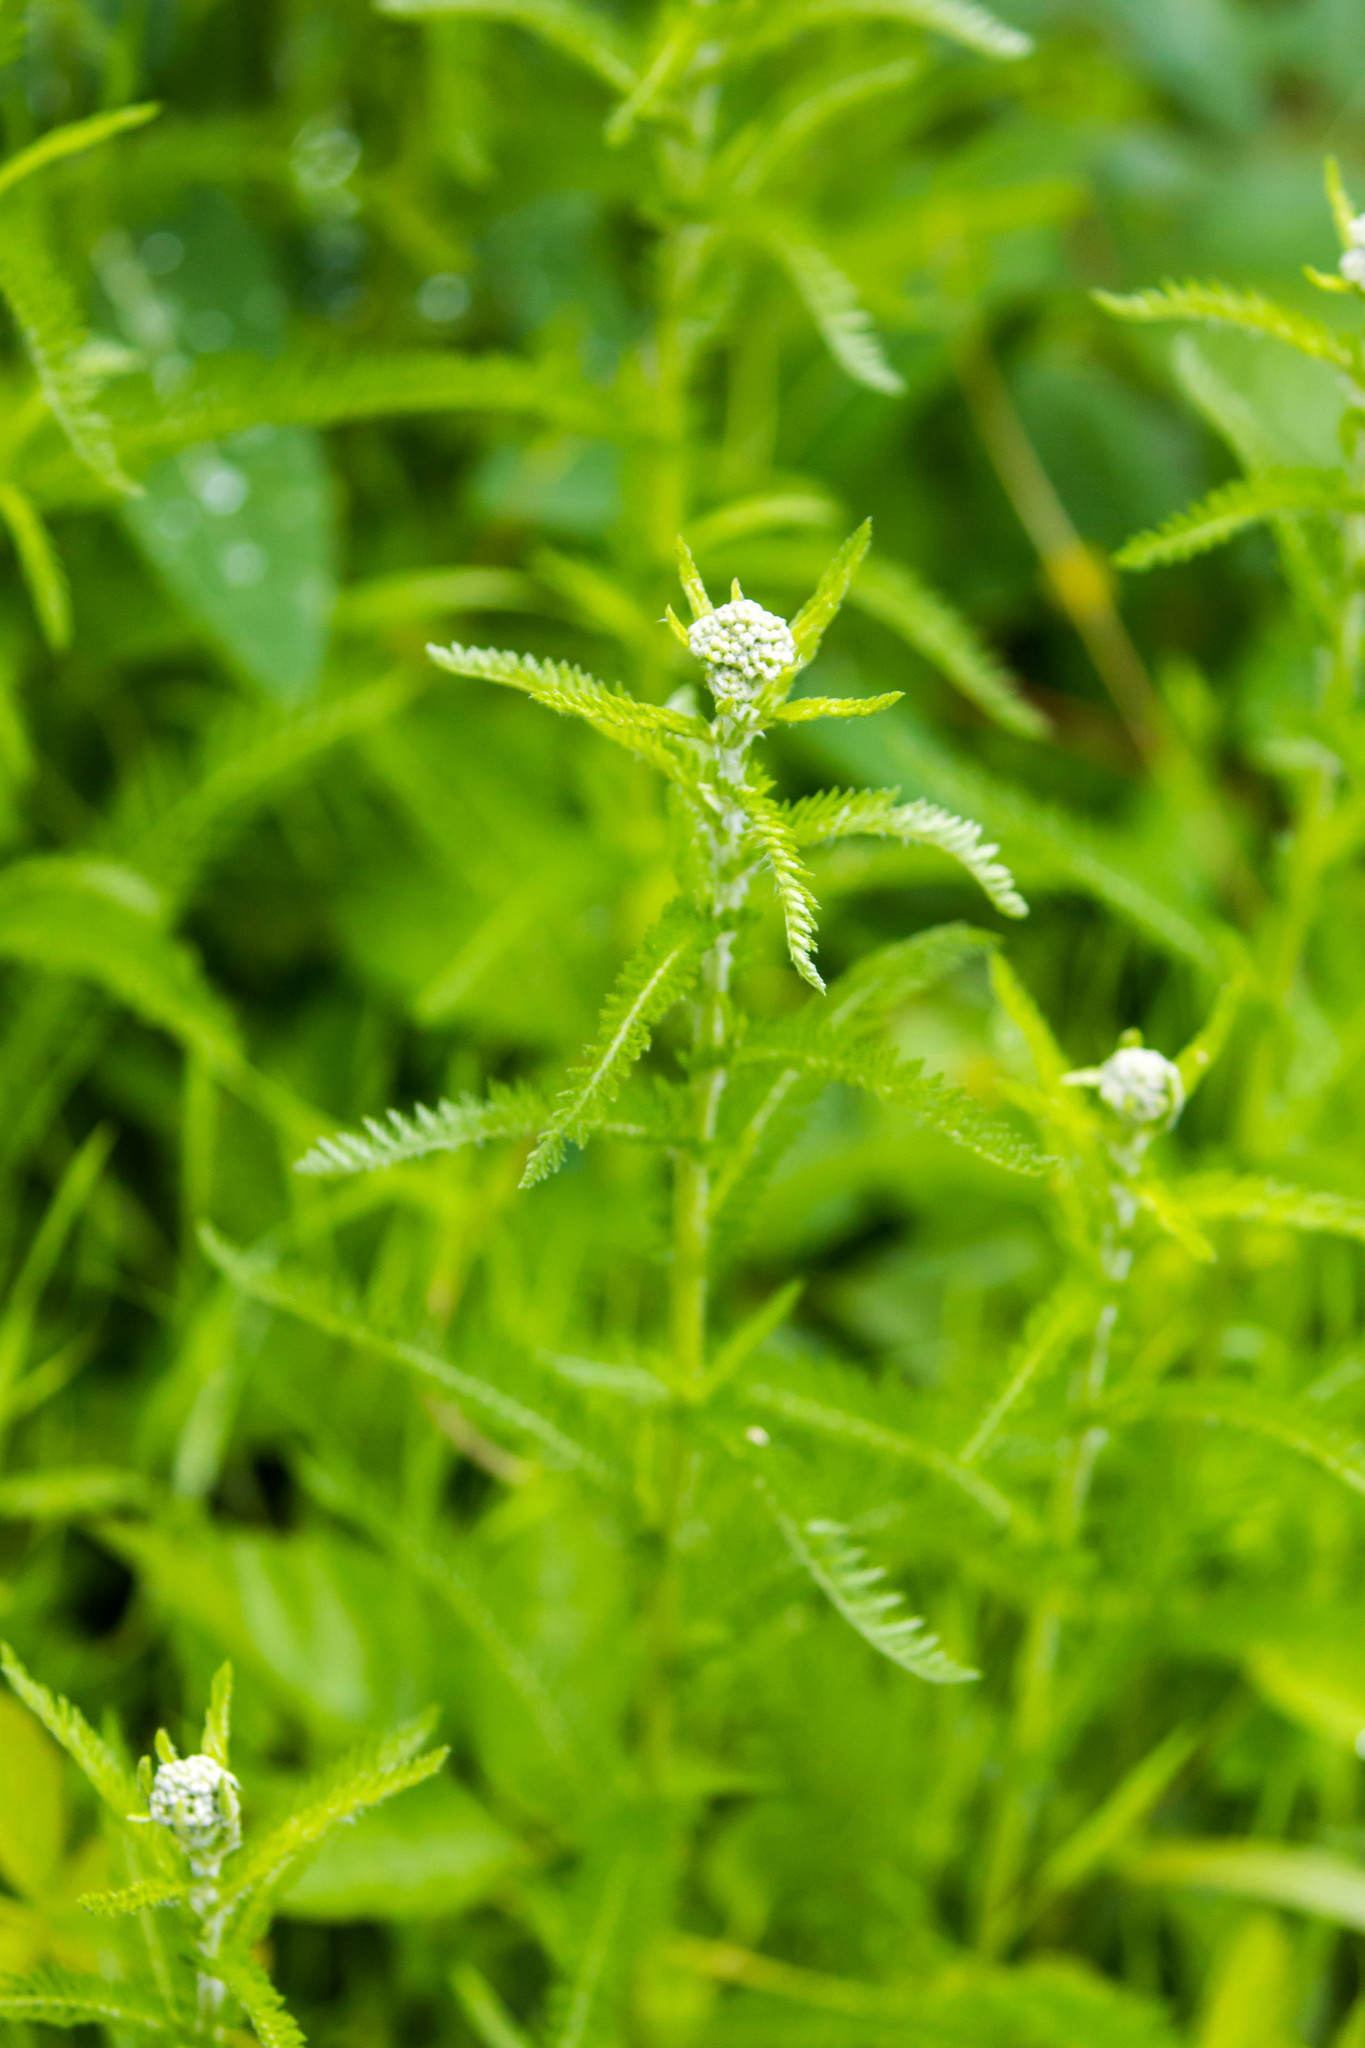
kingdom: Plantae
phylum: Tracheophyta
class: Magnoliopsida
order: Asterales
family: Asteraceae
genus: Achillea
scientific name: Achillea millefolium
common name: Yarrow
